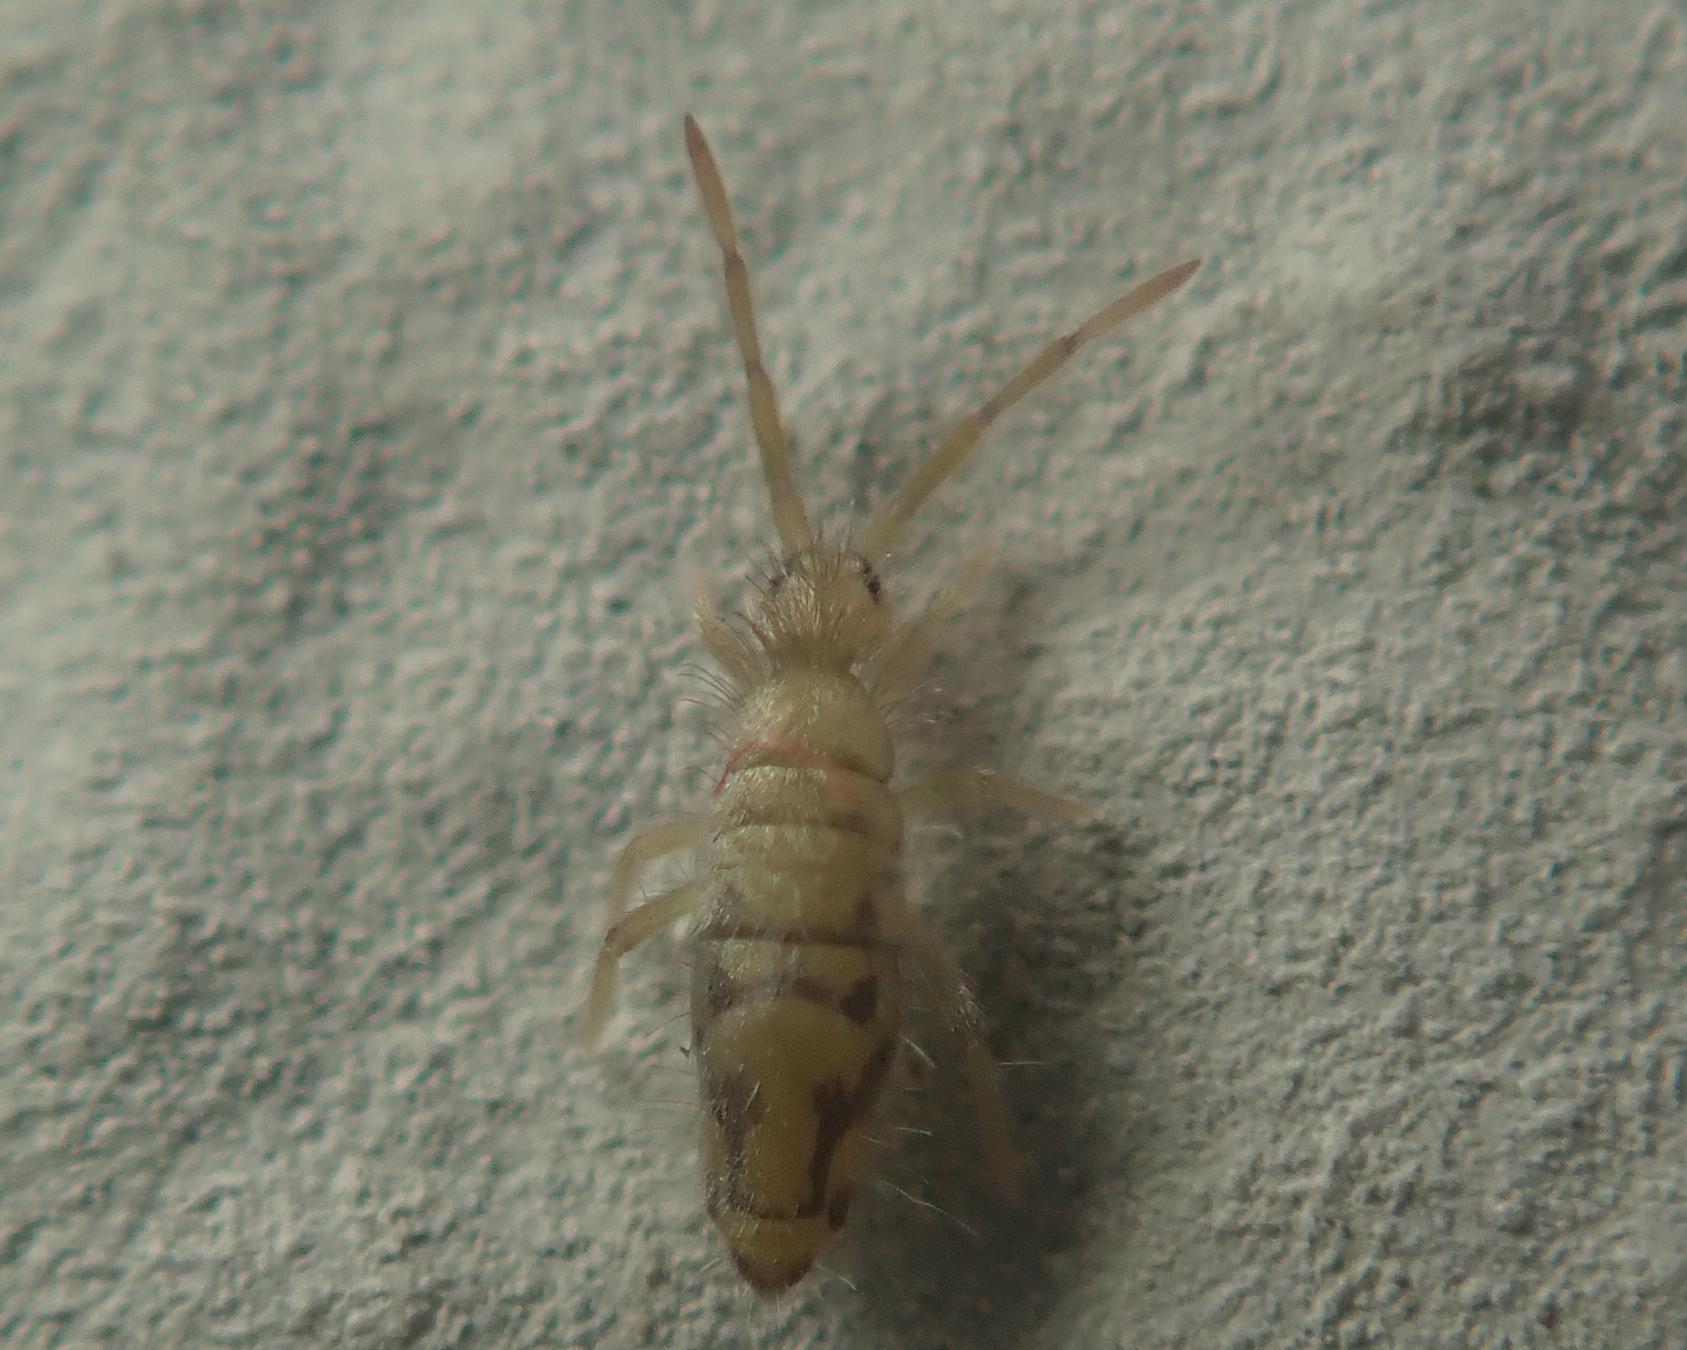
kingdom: Animalia
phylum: Arthropoda
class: Collembola
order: Entomobryomorpha
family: Entomobryidae
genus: Entomobrya
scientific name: Entomobrya nivalis
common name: Cosmopolitan springtail
